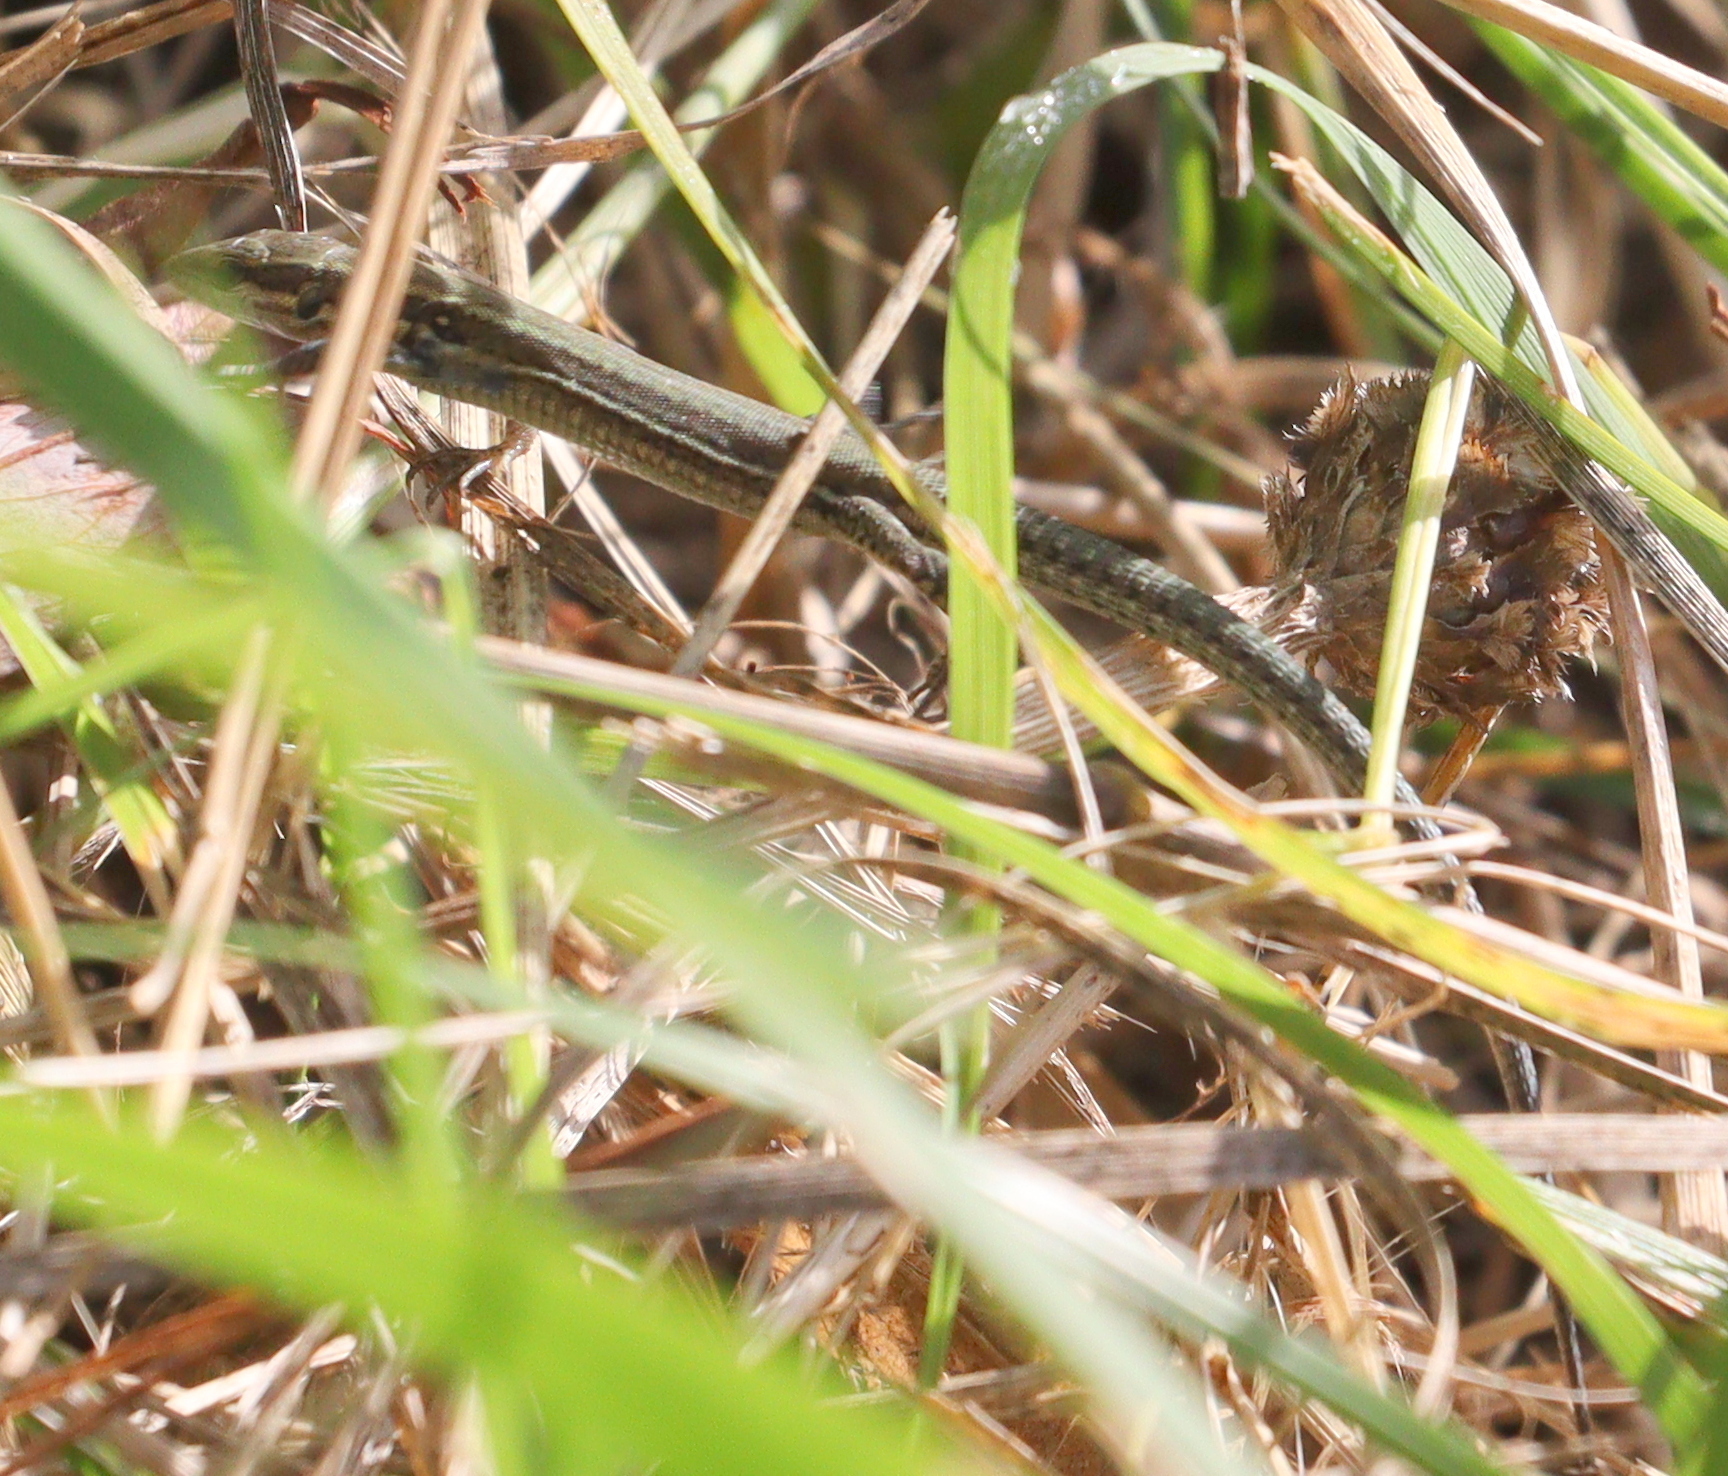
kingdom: Animalia
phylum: Chordata
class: Squamata
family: Lacertidae
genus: Podarcis
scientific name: Podarcis muralis
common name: Common wall lizard
